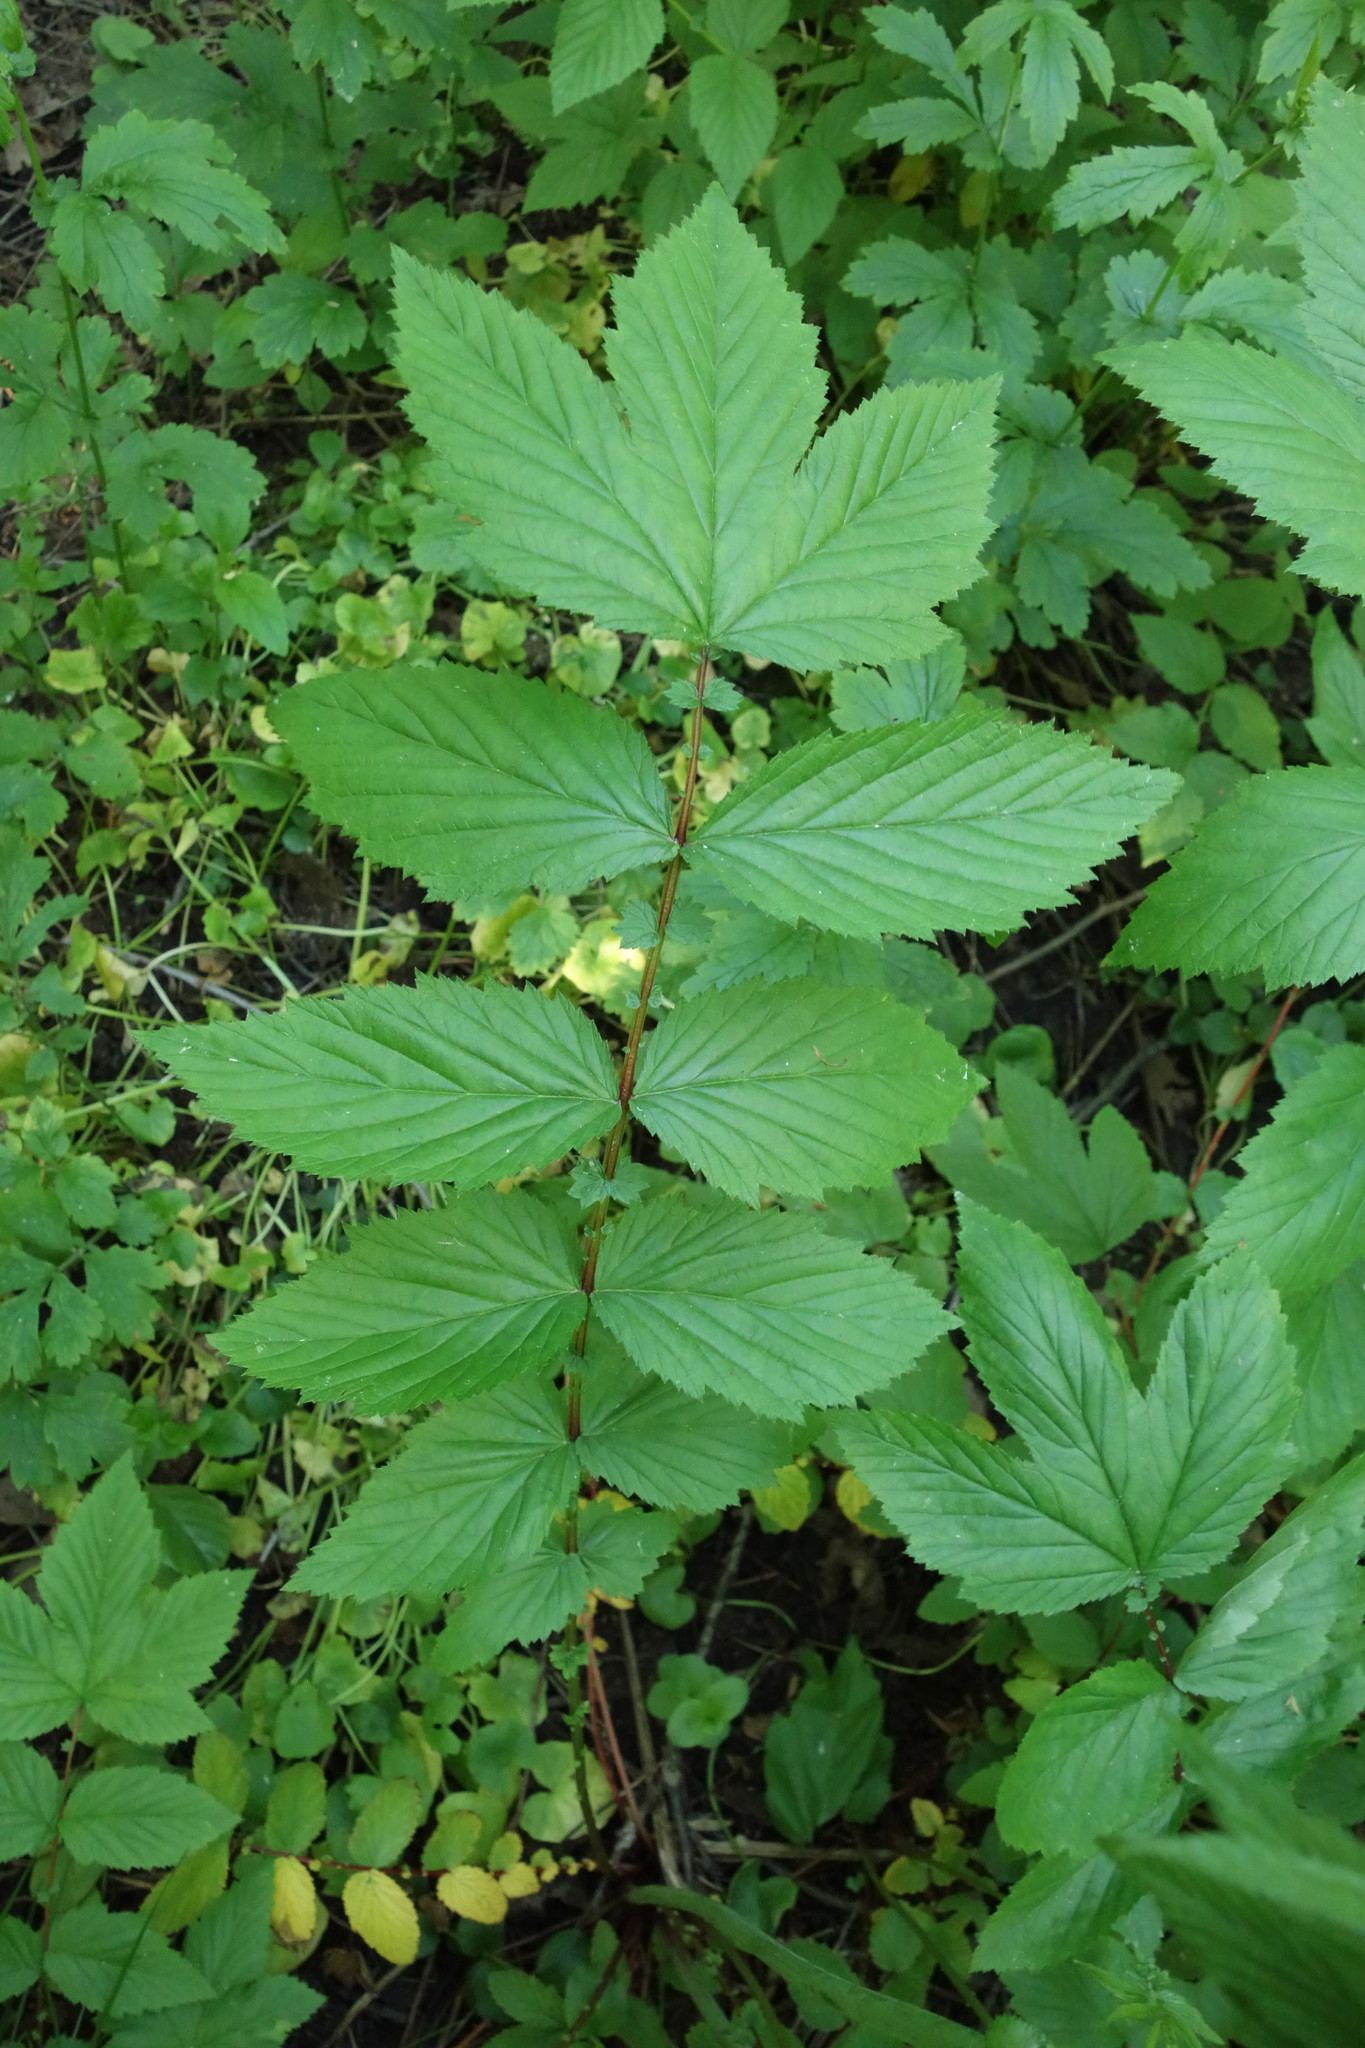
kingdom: Plantae
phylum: Tracheophyta
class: Magnoliopsida
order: Rosales
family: Rosaceae
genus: Filipendula
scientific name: Filipendula ulmaria
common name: Meadowsweet
